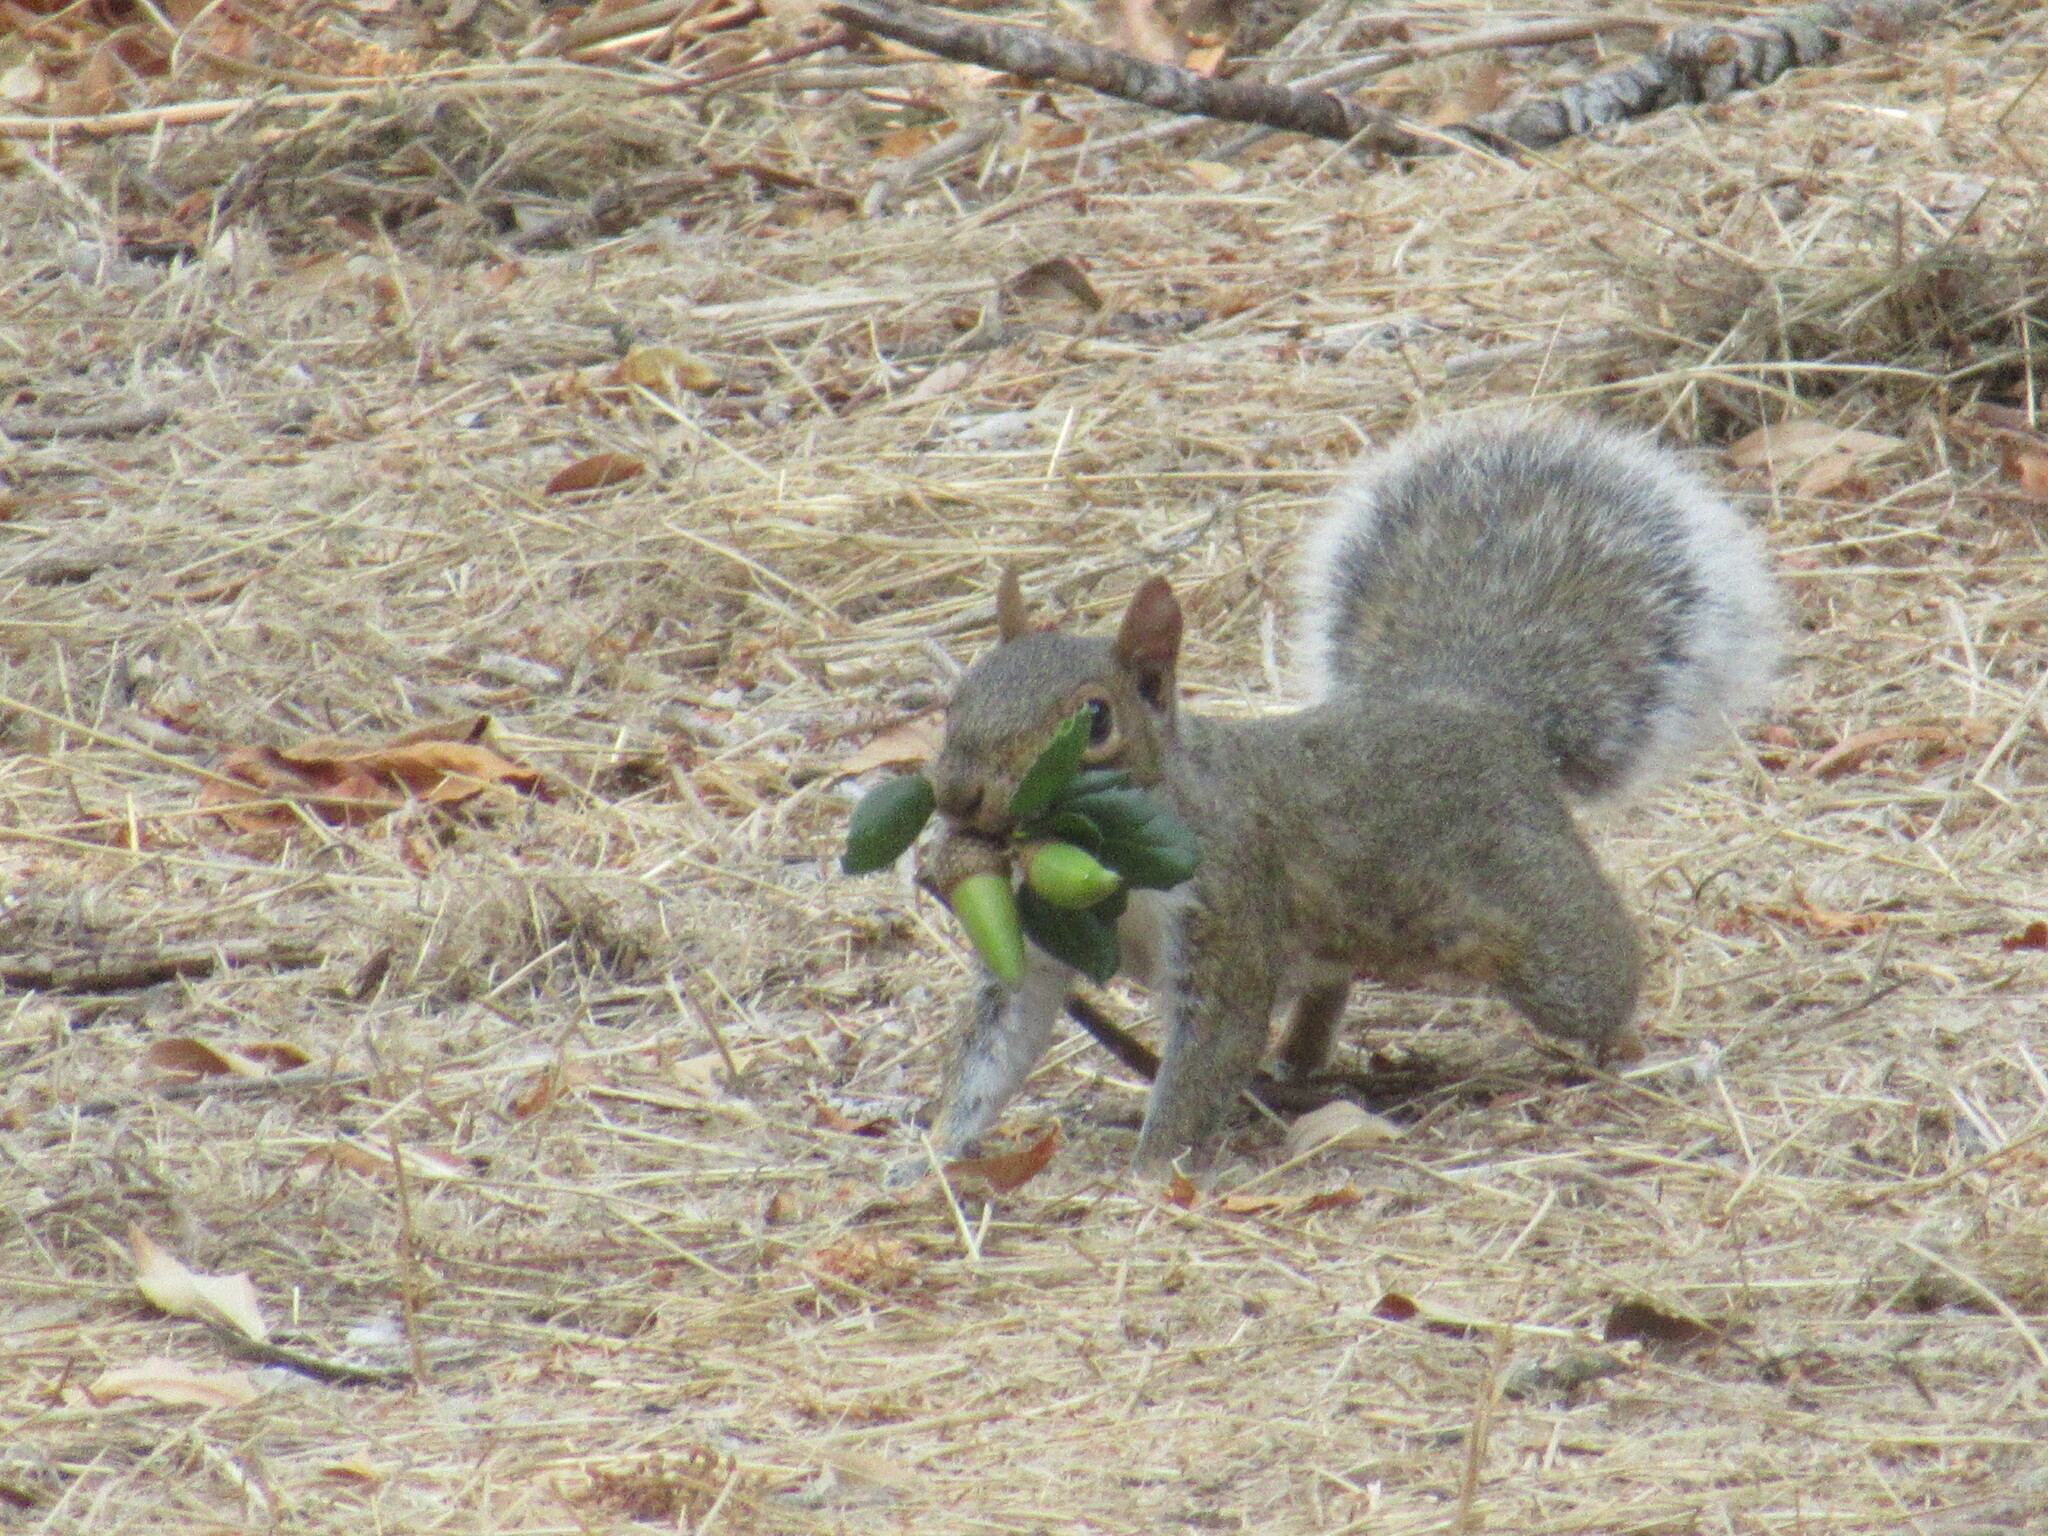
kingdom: Plantae
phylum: Tracheophyta
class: Magnoliopsida
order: Fagales
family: Fagaceae
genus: Quercus
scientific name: Quercus agrifolia
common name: California live oak
